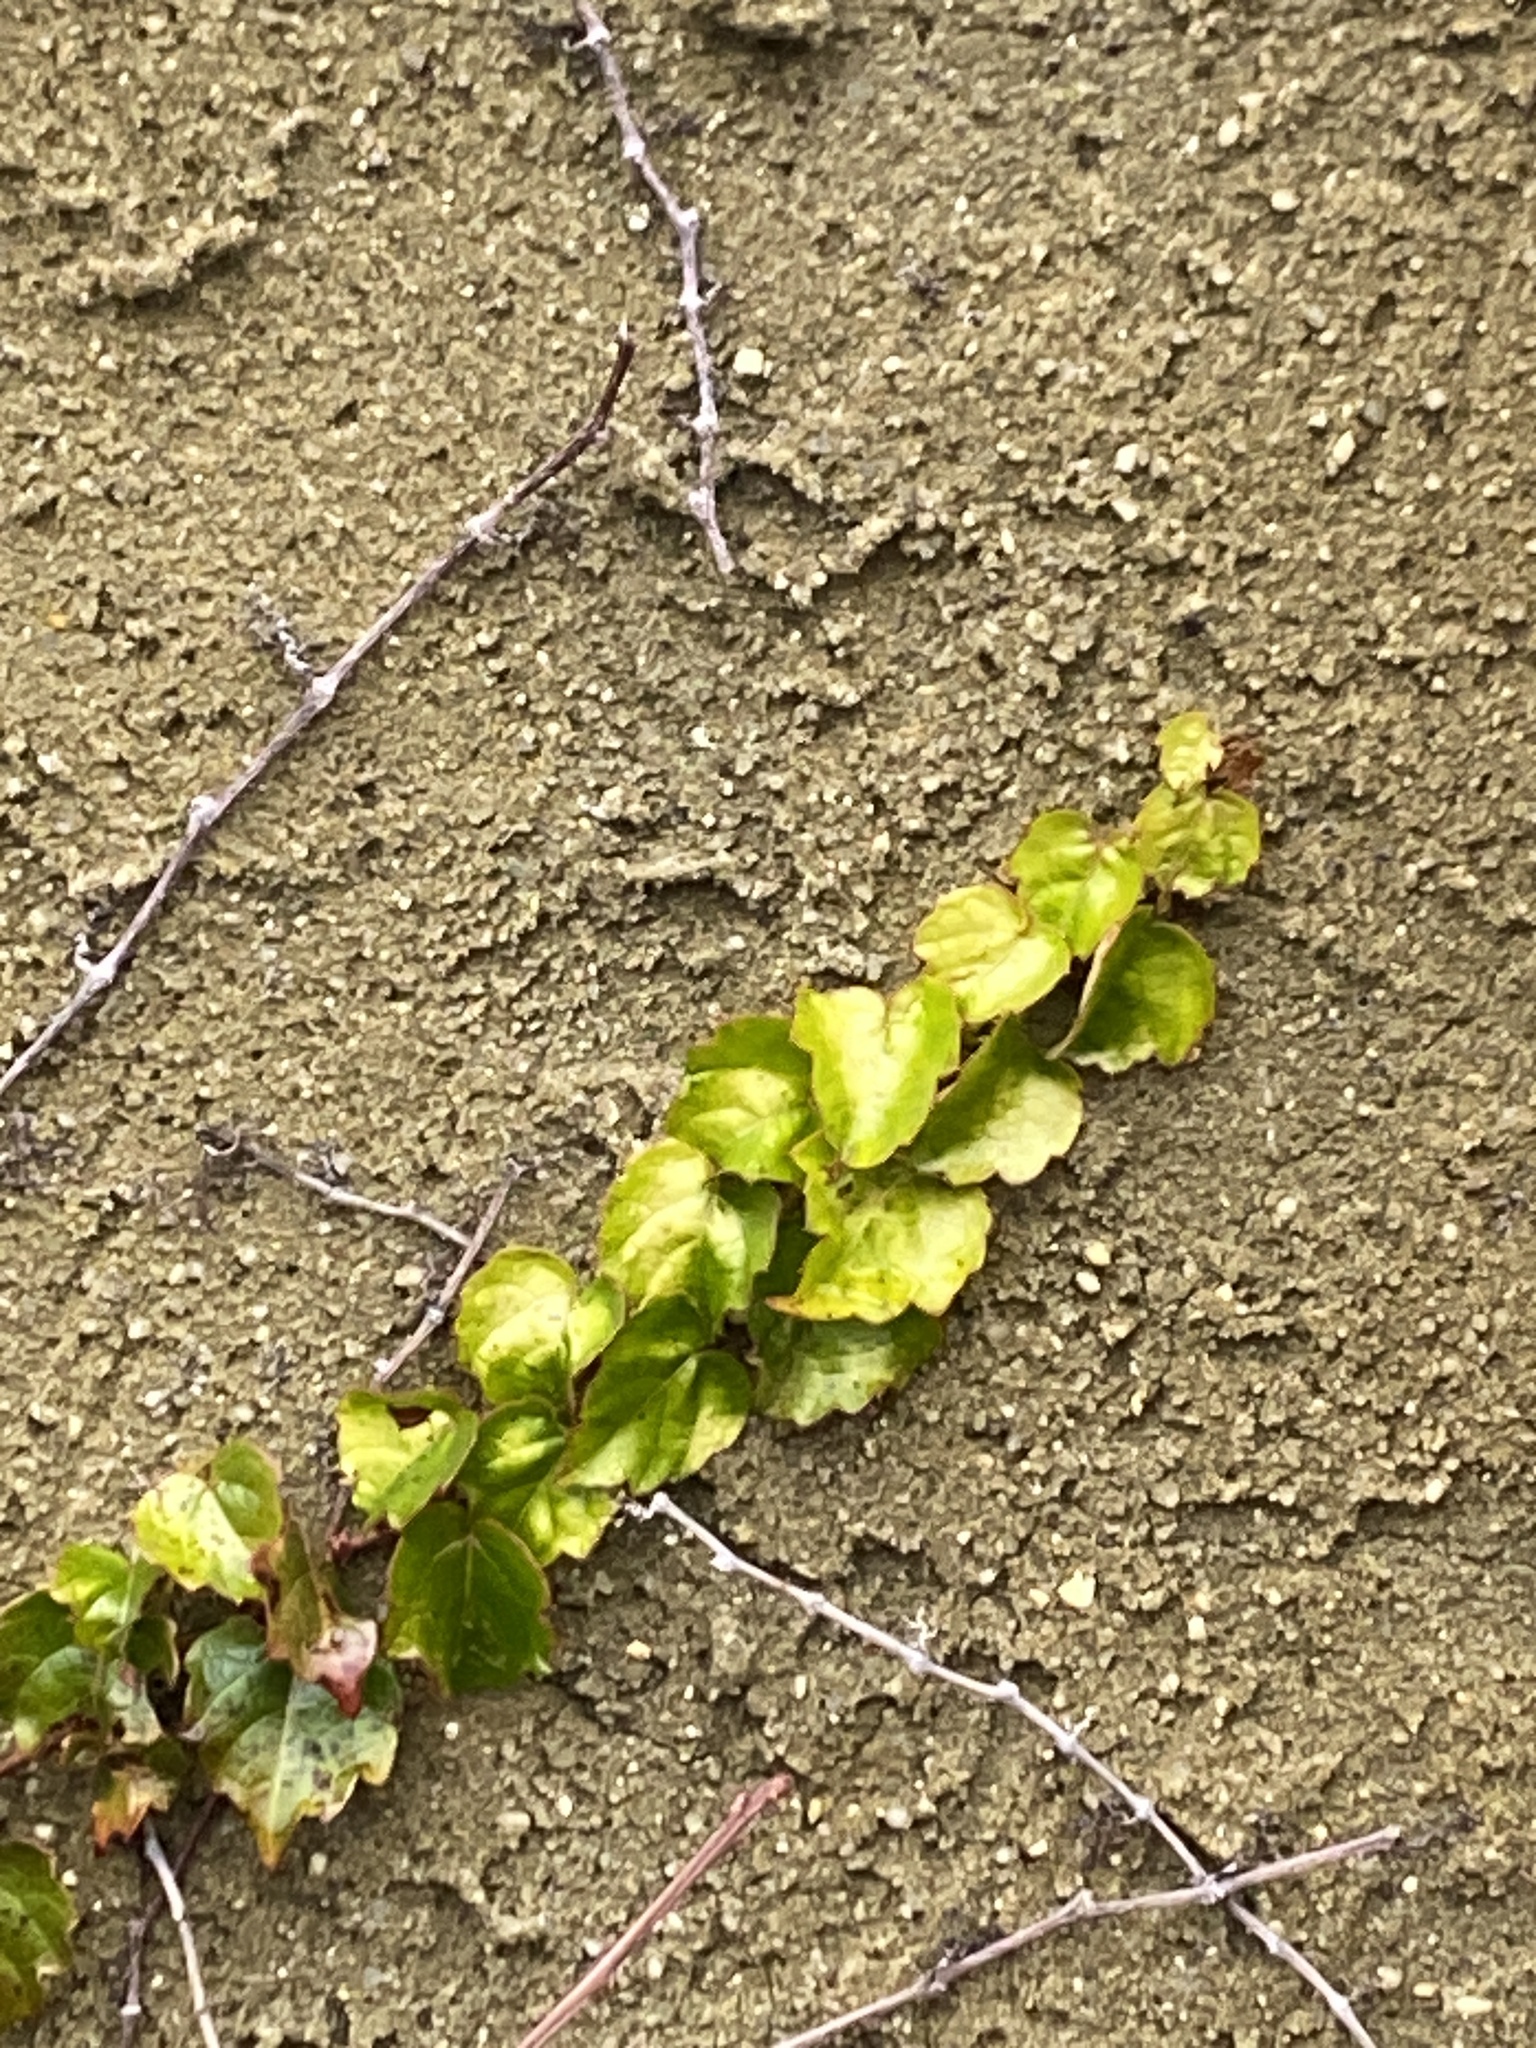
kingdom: Plantae
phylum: Tracheophyta
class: Magnoliopsida
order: Vitales
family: Vitaceae
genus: Parthenocissus
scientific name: Parthenocissus tricuspidata
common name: Boston ivy
